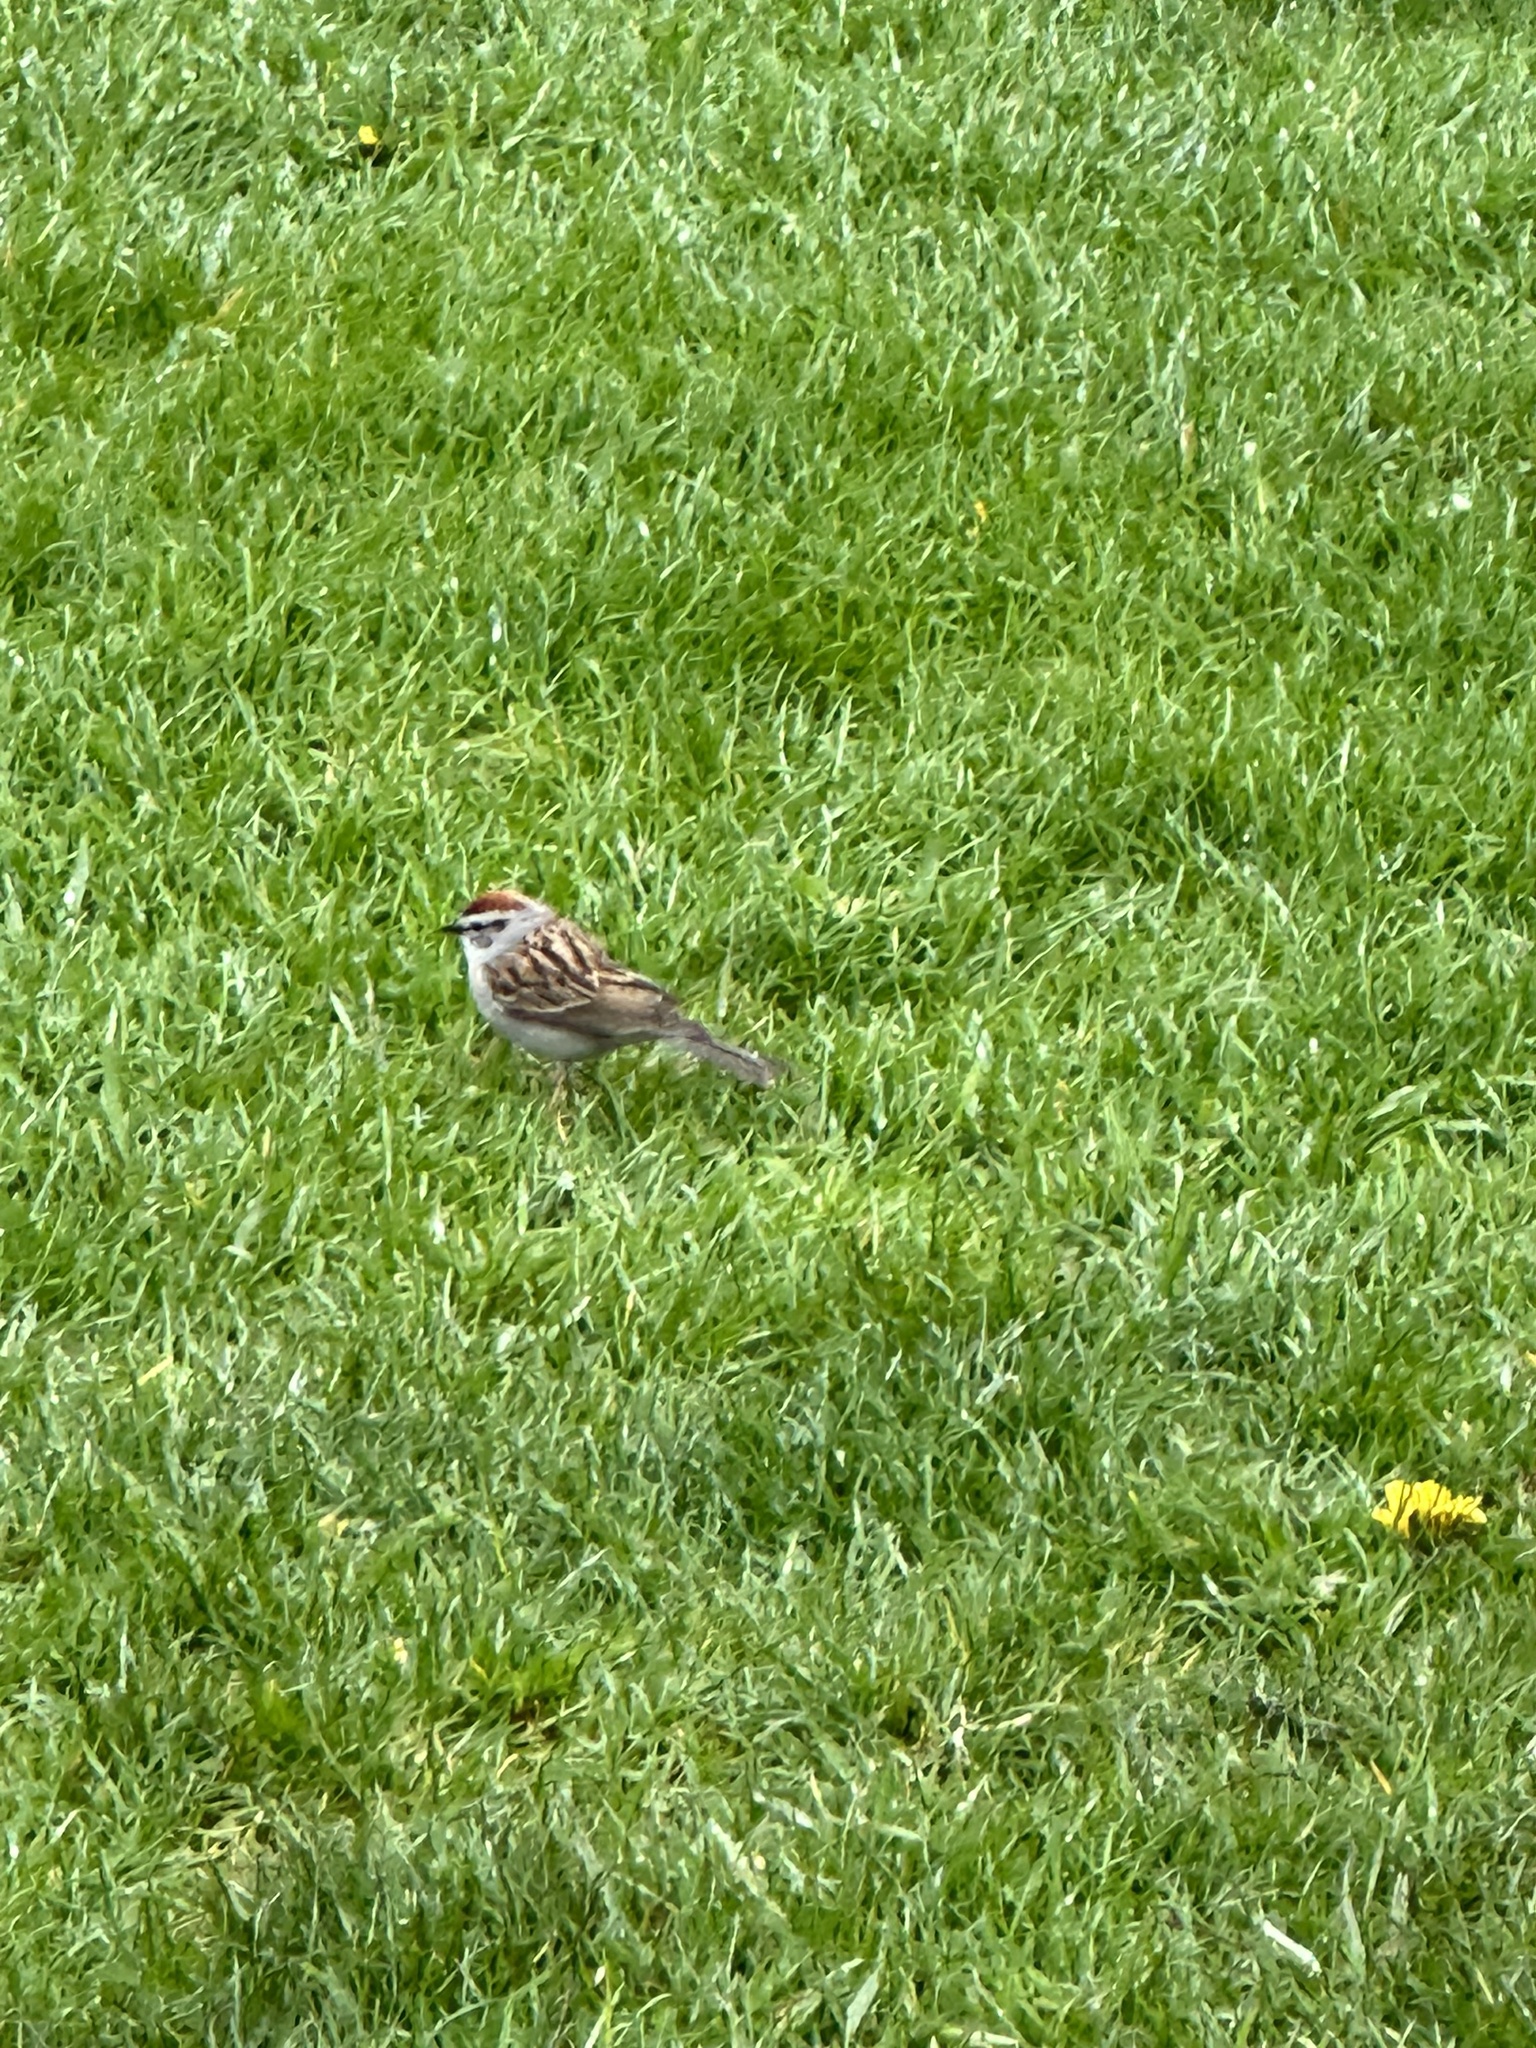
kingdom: Animalia
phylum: Chordata
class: Aves
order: Passeriformes
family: Passerellidae
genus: Spizella
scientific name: Spizella passerina
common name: Chipping sparrow
